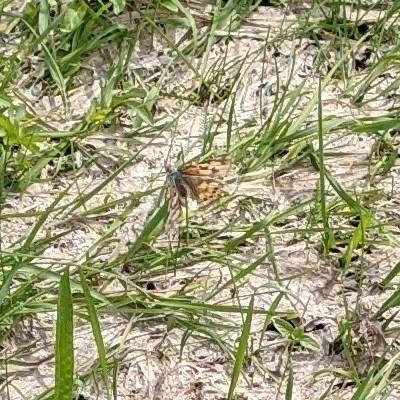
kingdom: Animalia
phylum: Arthropoda
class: Insecta
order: Lepidoptera
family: Nymphalidae
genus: Vanessa
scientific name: Vanessa cardui
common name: Painted lady
